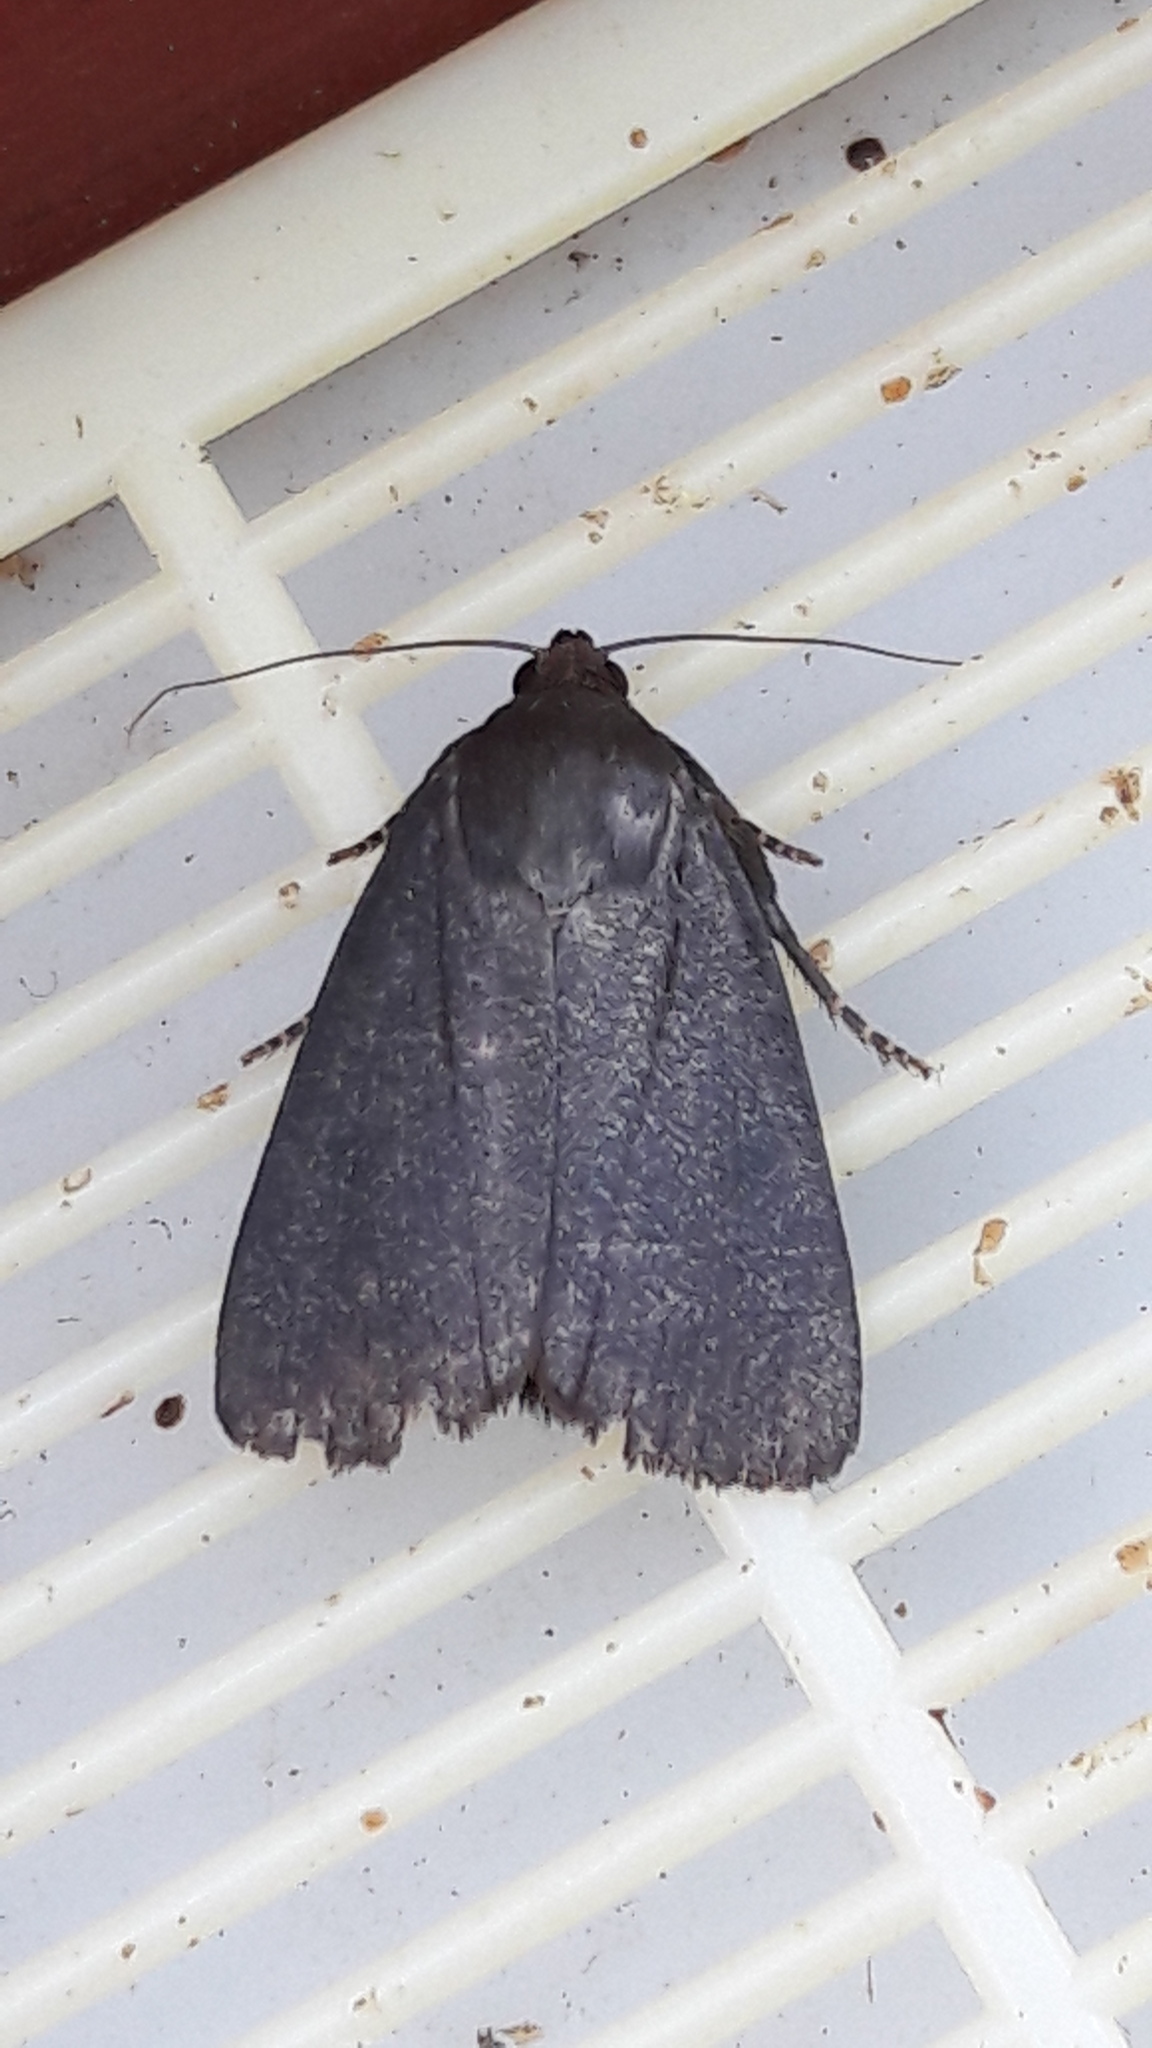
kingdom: Animalia
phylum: Arthropoda
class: Insecta
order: Lepidoptera
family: Noctuidae
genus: Amphipyra
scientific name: Amphipyra livida
